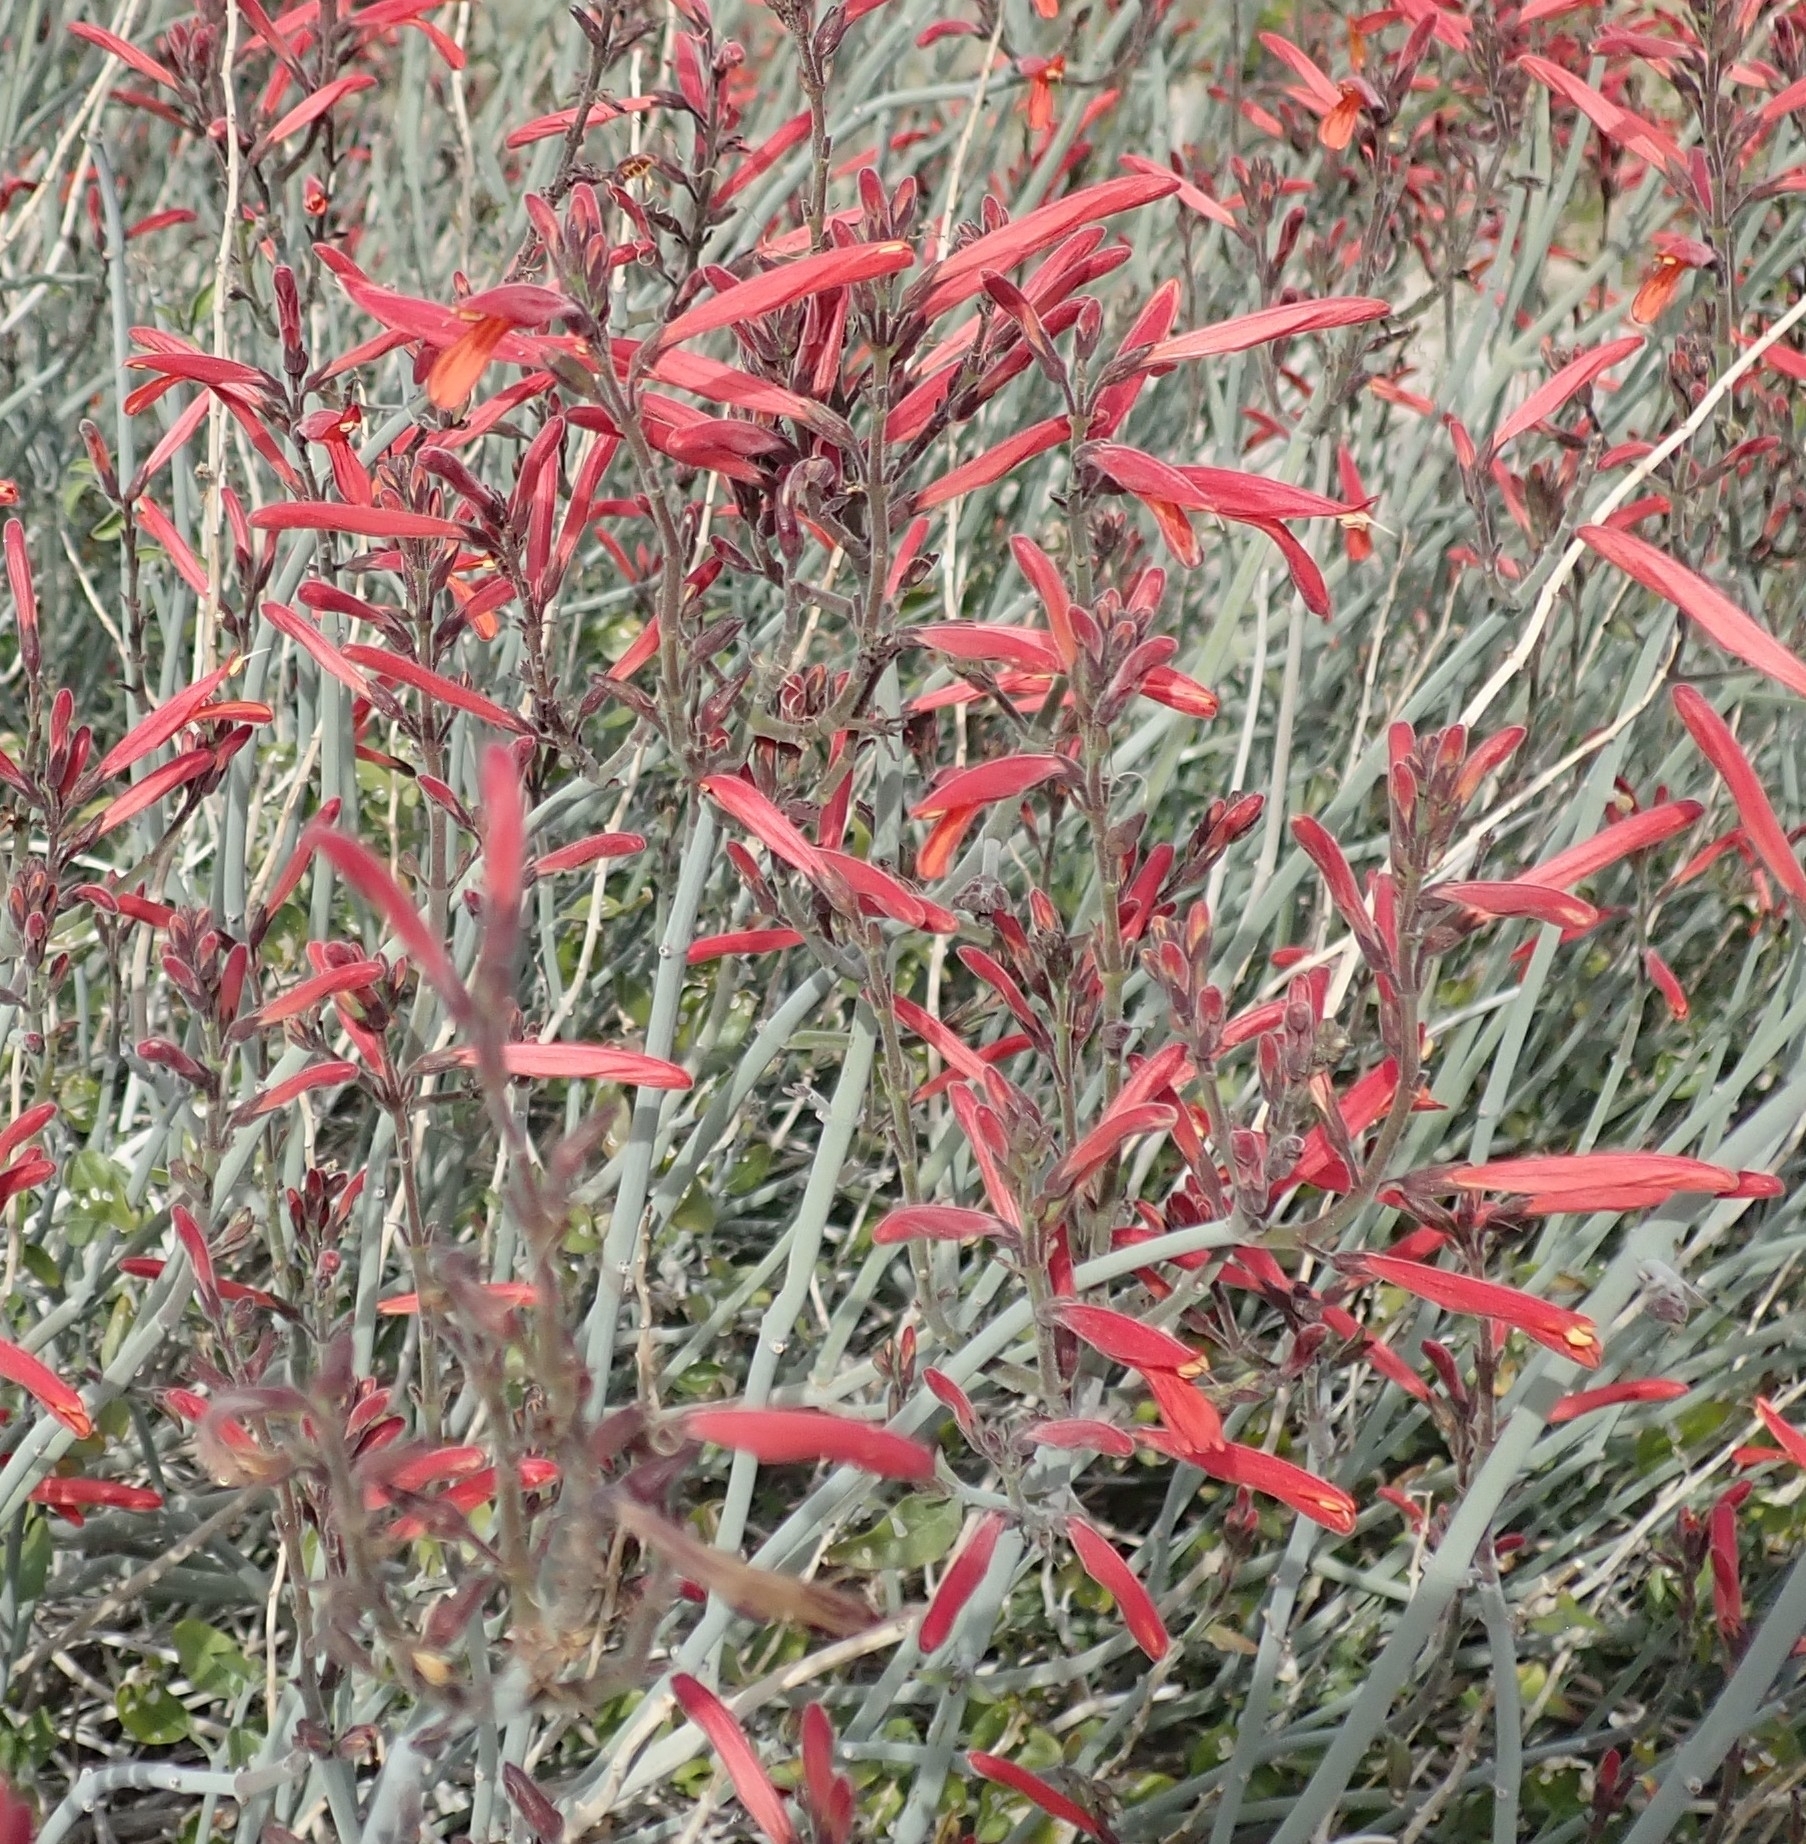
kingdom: Plantae
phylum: Tracheophyta
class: Magnoliopsida
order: Lamiales
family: Acanthaceae
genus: Justicia
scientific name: Justicia californica
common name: Chuparosa-honeysuckle
